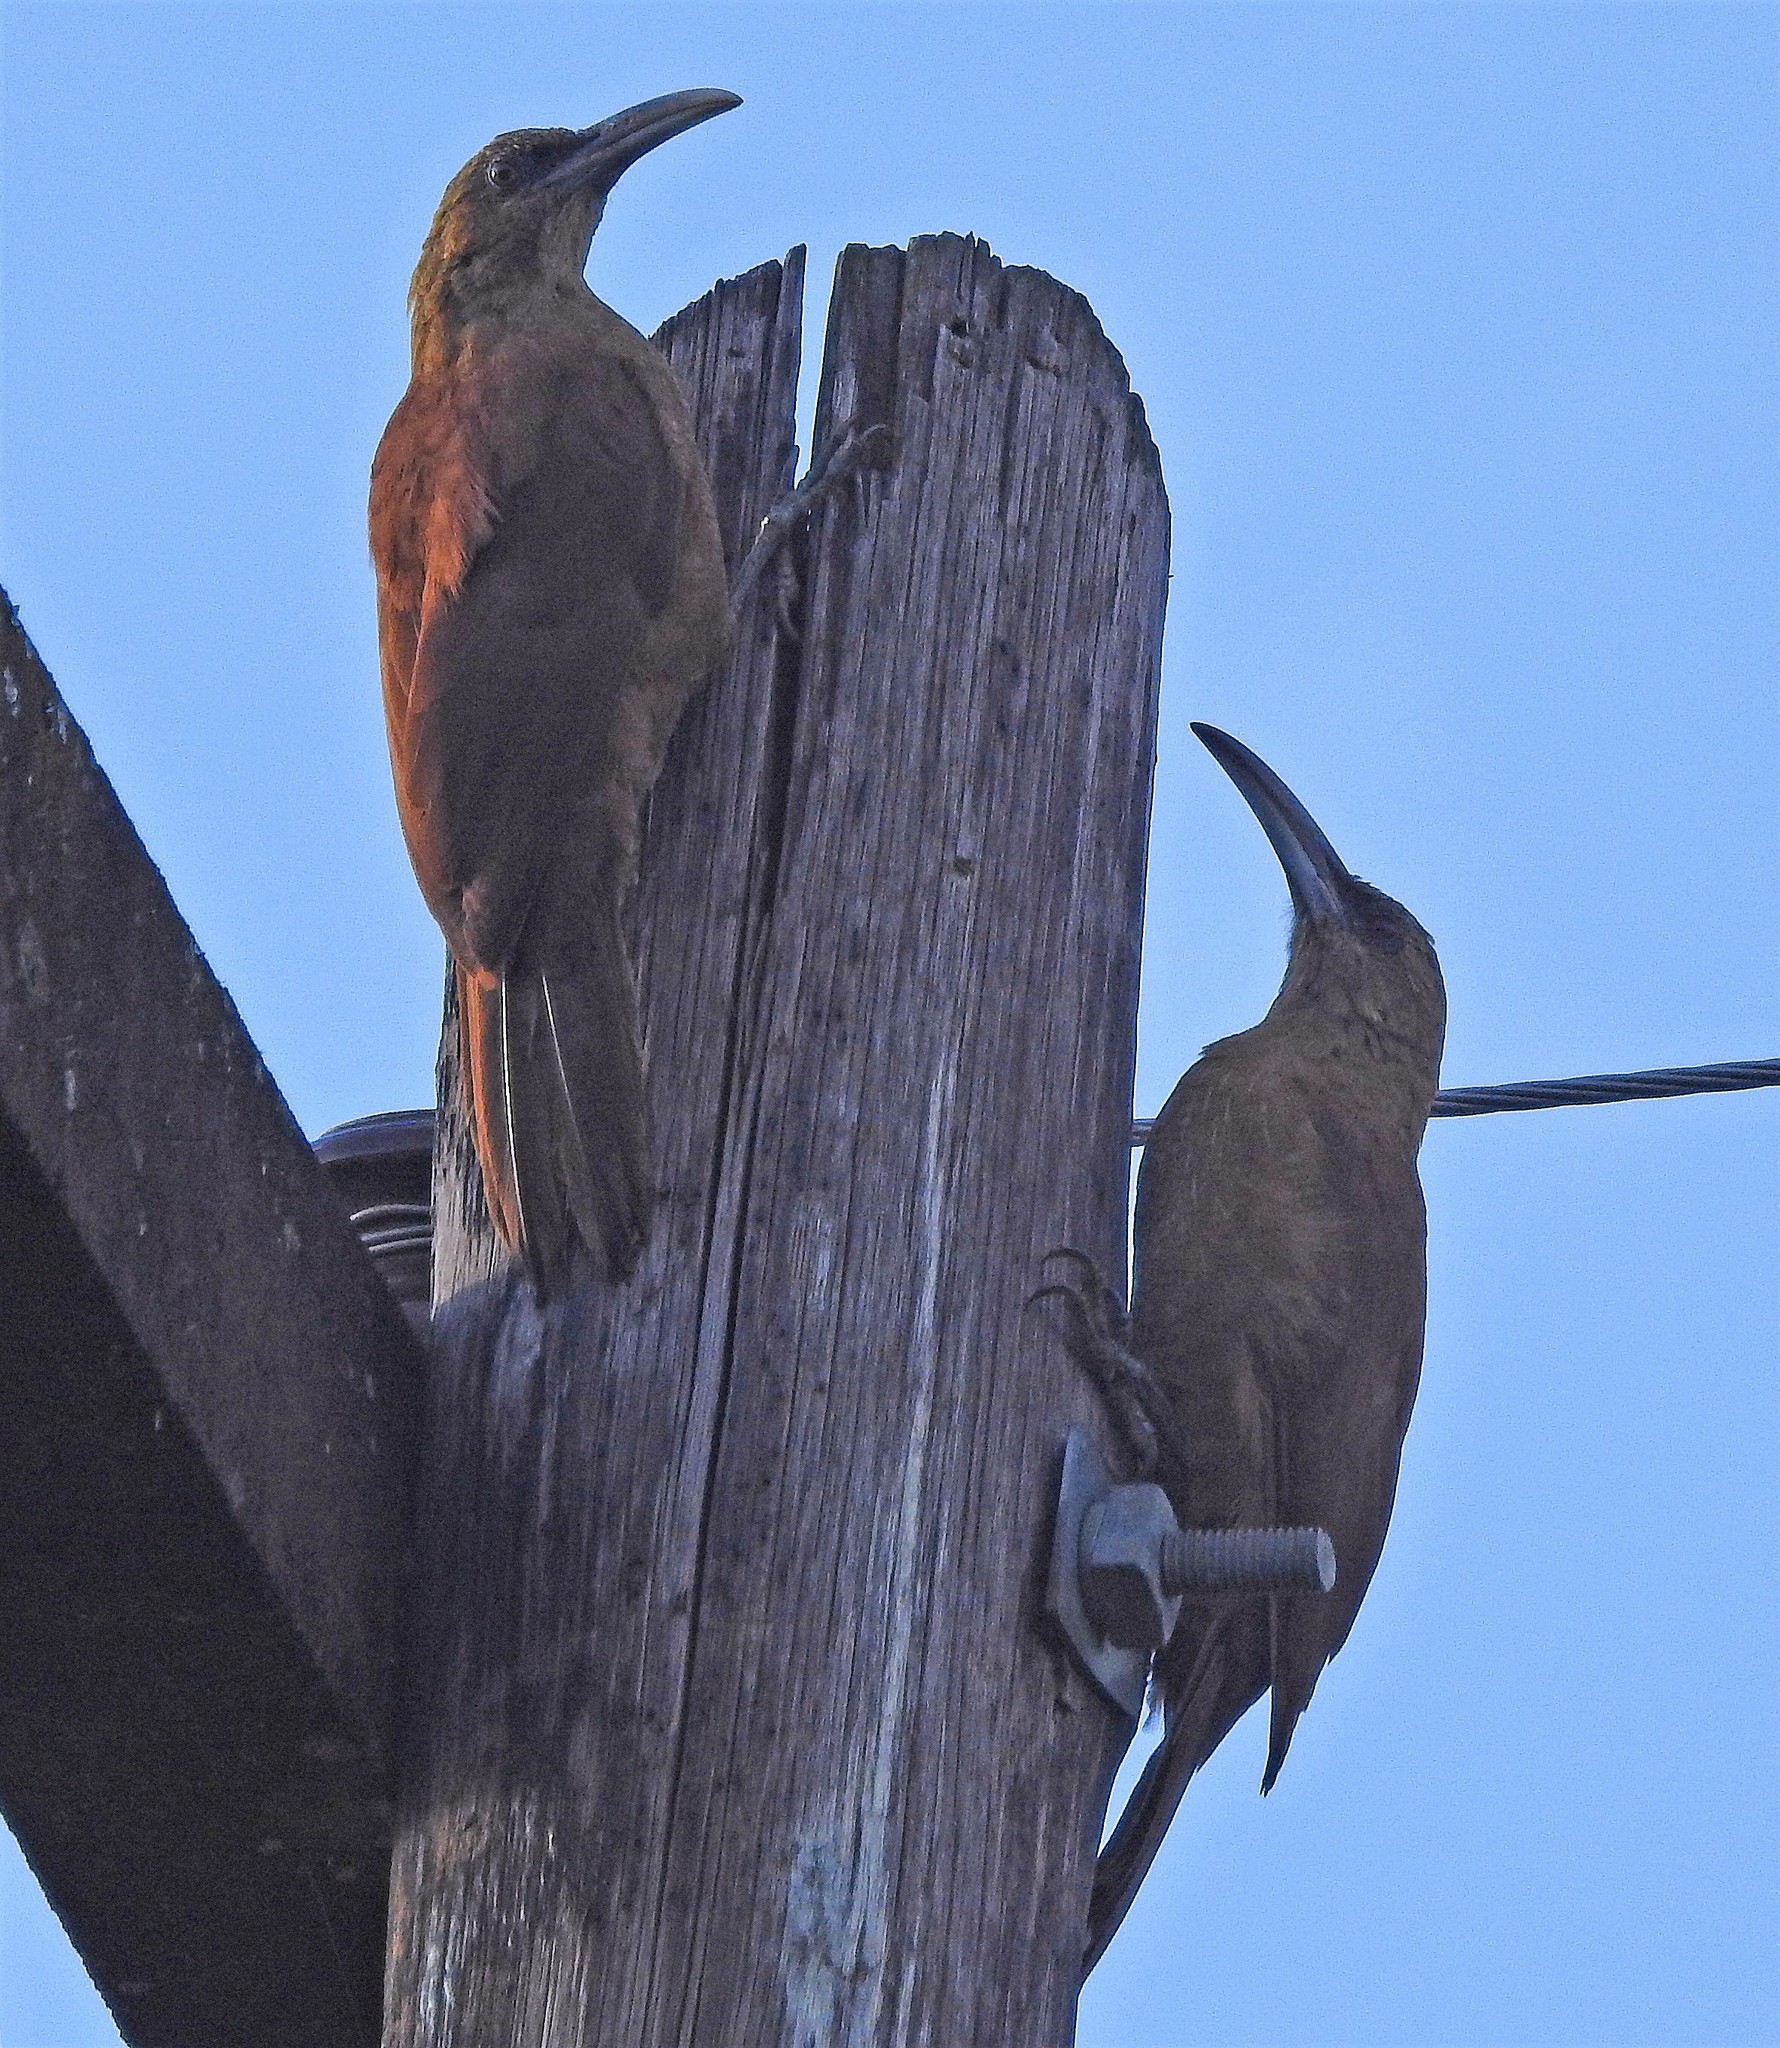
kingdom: Animalia
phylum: Chordata
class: Aves
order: Passeriformes
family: Furnariidae
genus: Xiphocolaptes
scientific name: Xiphocolaptes major
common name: Great rufous woodcreeper
